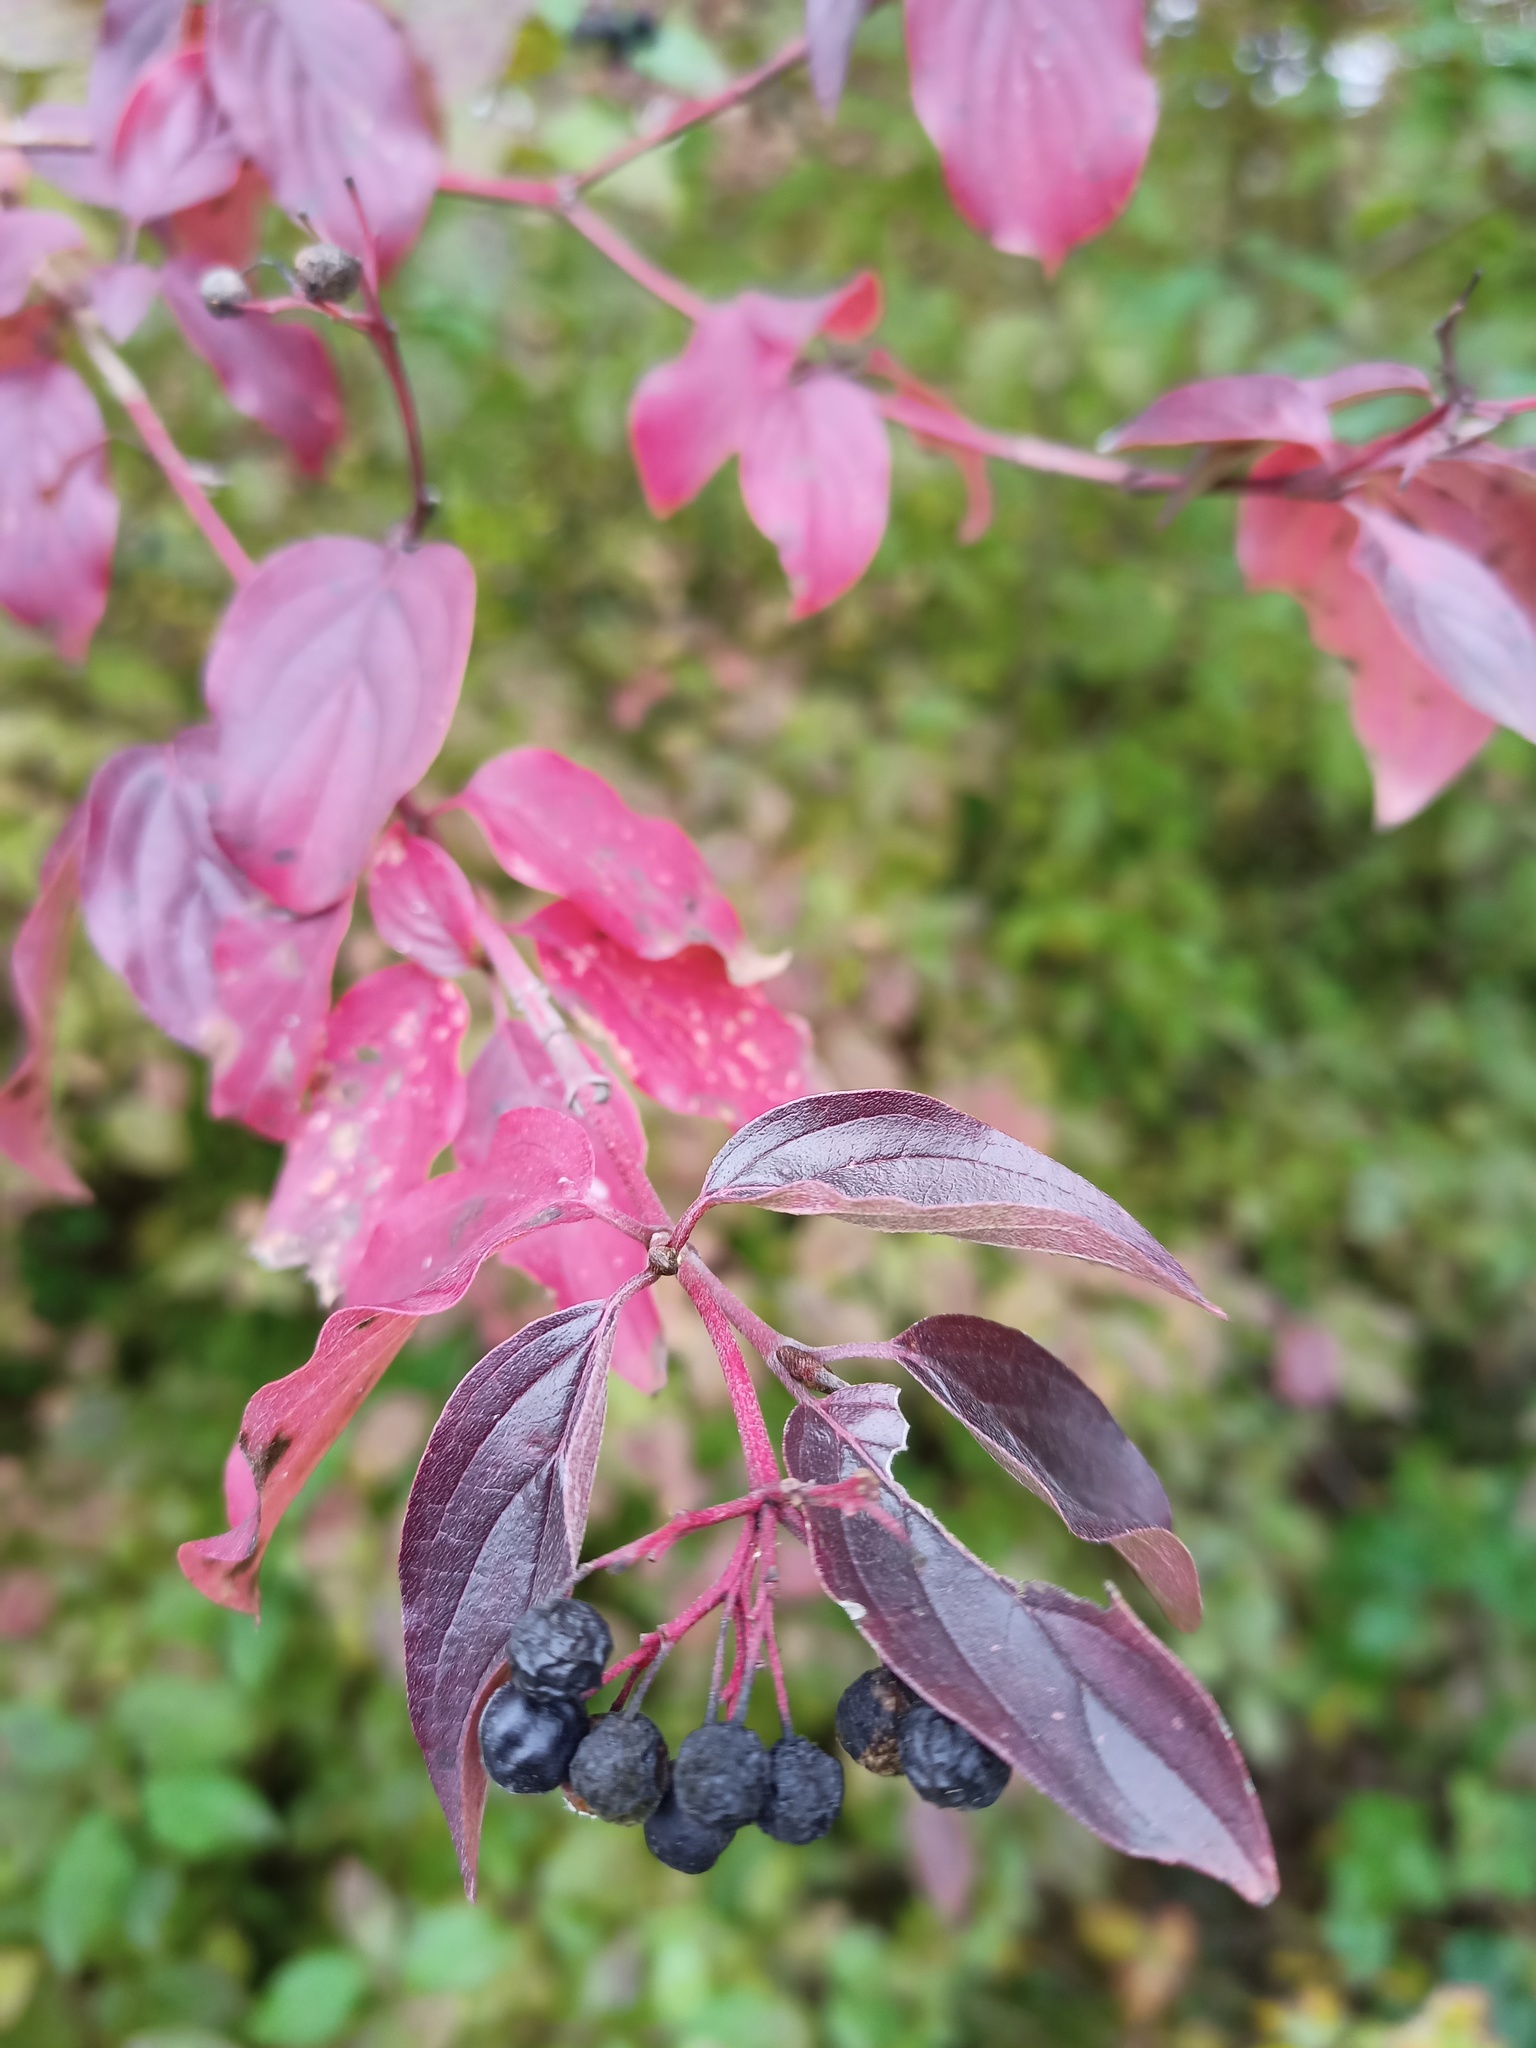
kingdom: Plantae
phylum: Tracheophyta
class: Magnoliopsida
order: Cornales
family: Cornaceae
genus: Cornus
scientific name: Cornus sanguinea
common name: Dogwood
